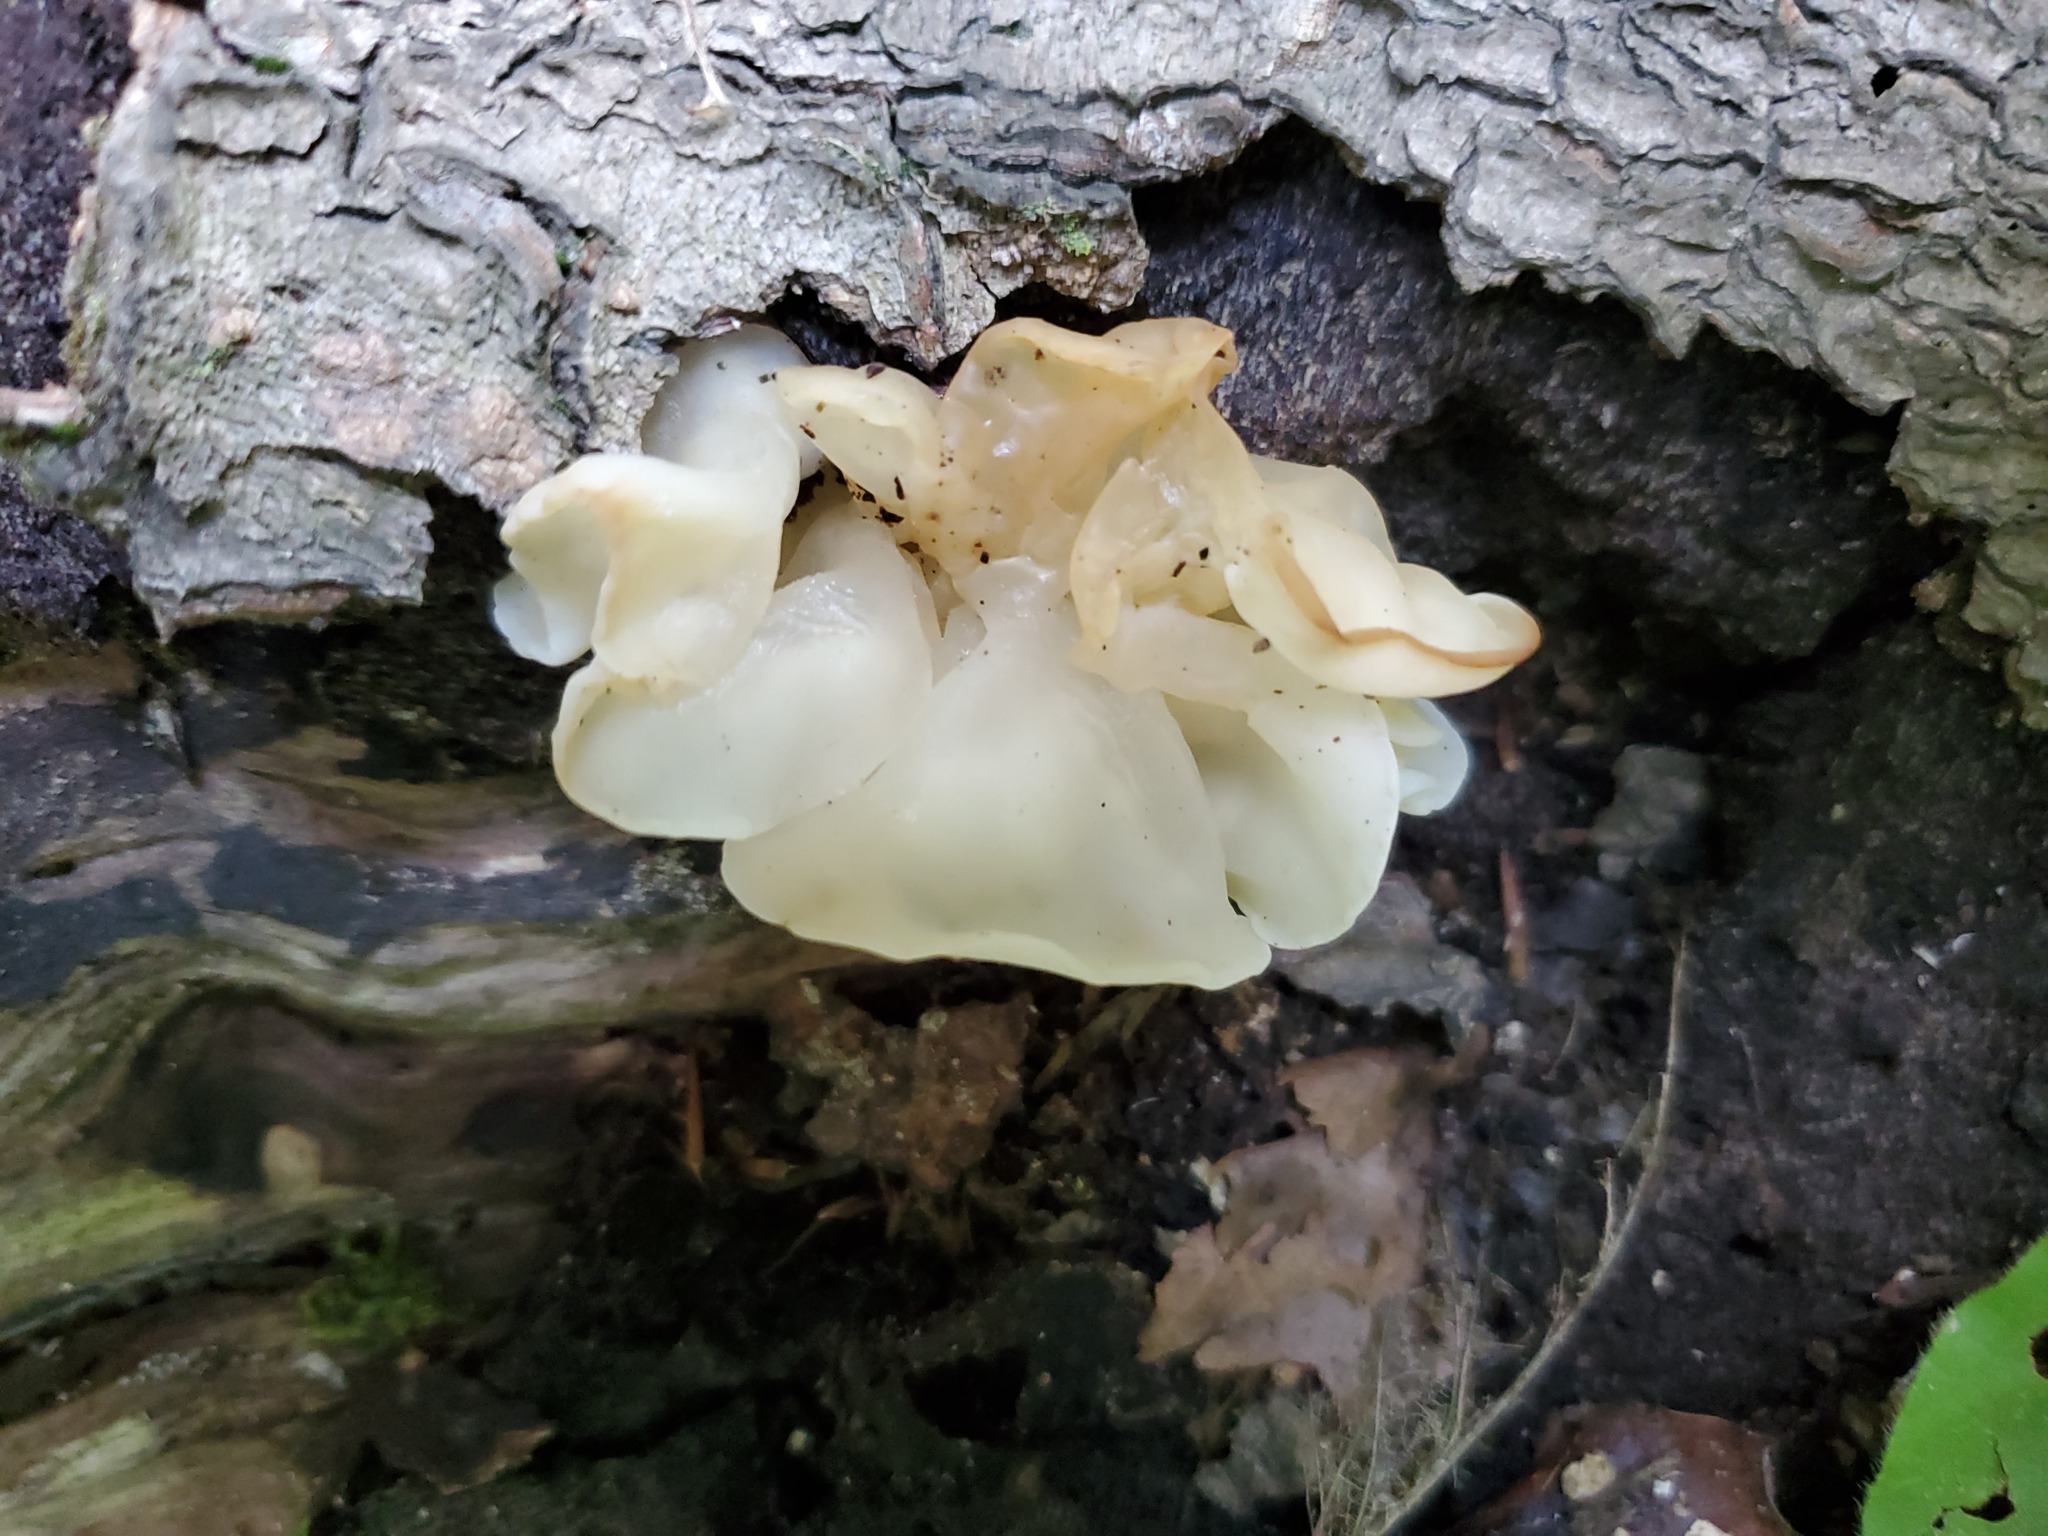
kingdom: Fungi
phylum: Basidiomycota
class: Agaricomycetes
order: Auriculariales
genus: Ductifera
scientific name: Ductifera pululahuana
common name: White jelly fungus
